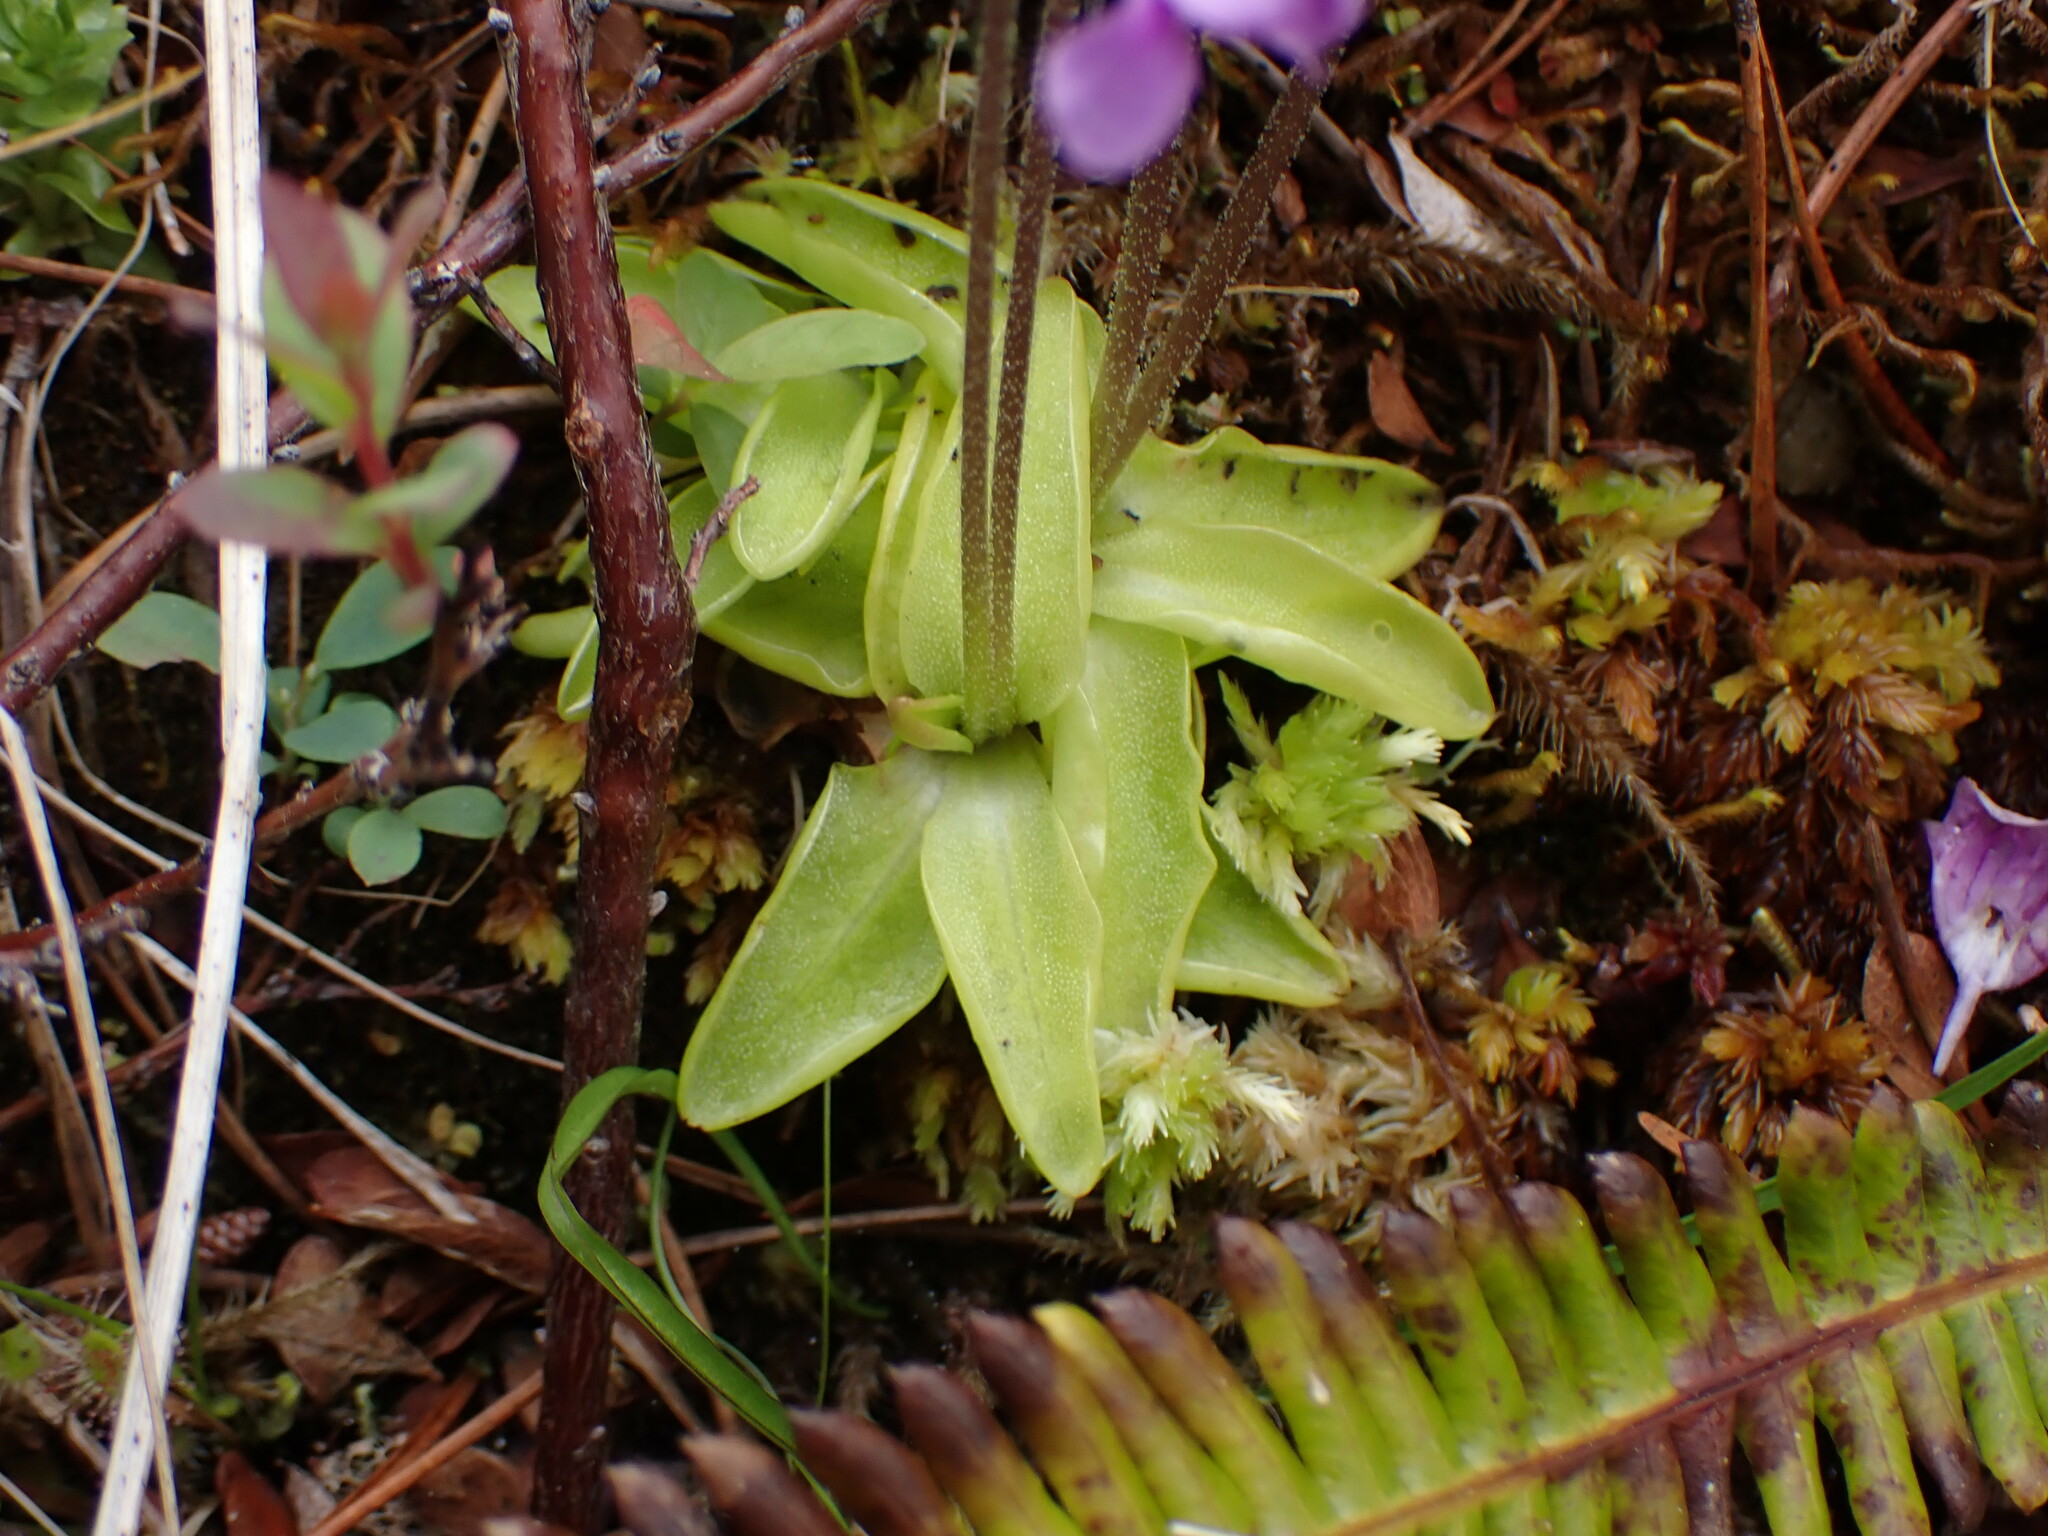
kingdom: Plantae
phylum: Tracheophyta
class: Magnoliopsida
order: Lamiales
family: Lentibulariaceae
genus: Pinguicula
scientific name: Pinguicula vulgaris
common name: Common butterwort
